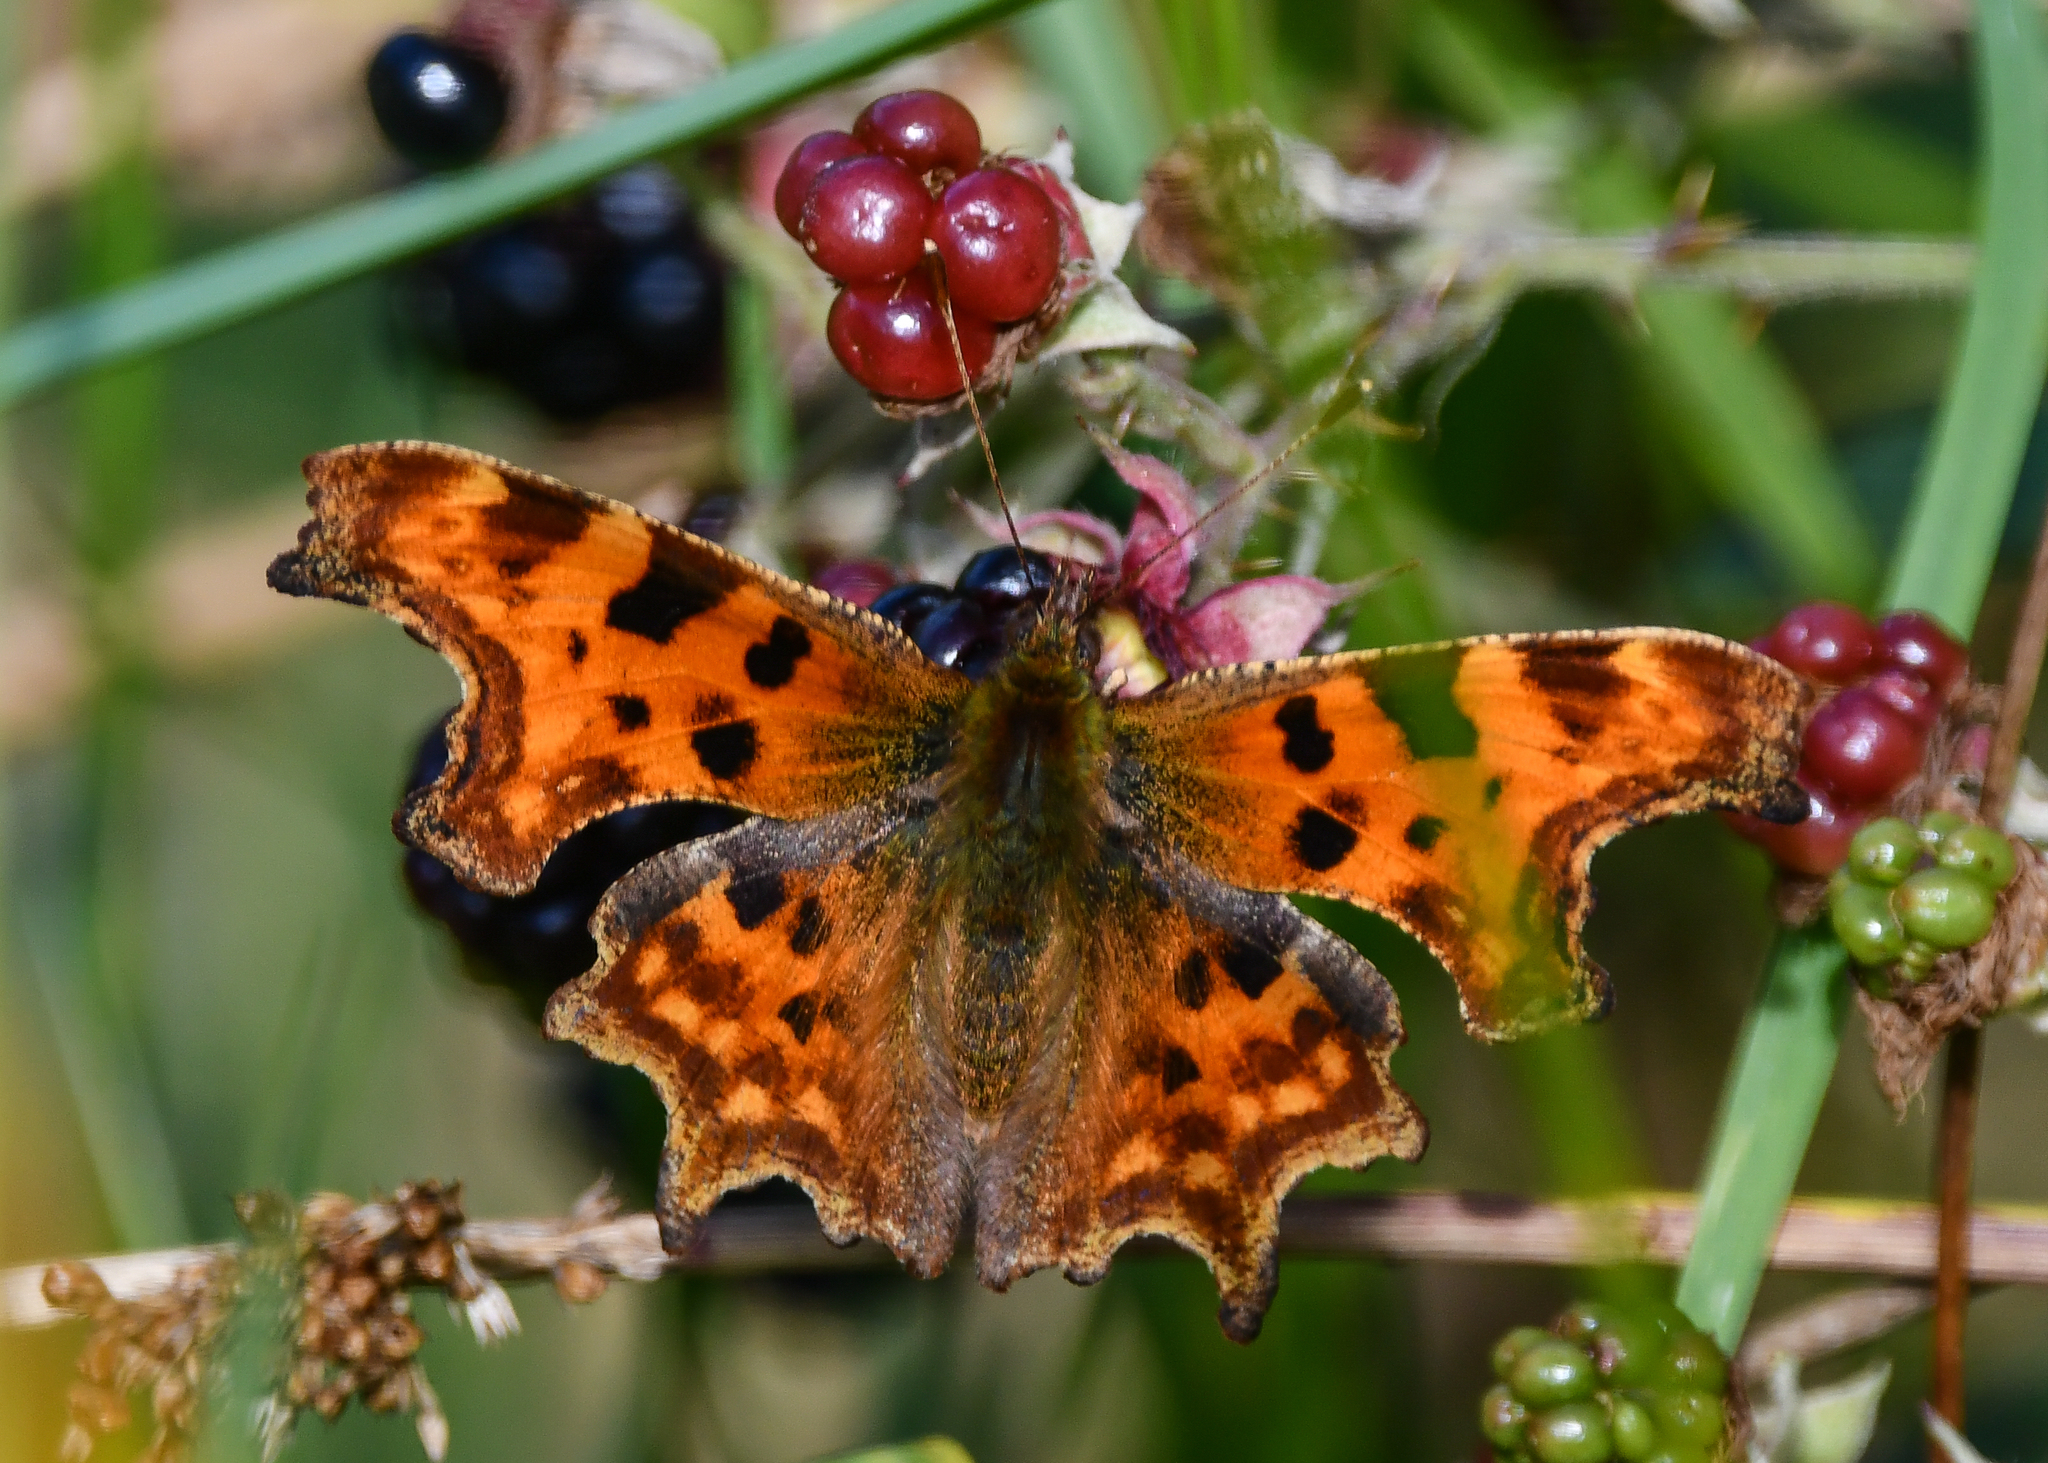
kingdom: Animalia
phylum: Arthropoda
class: Insecta
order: Lepidoptera
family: Nymphalidae
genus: Polygonia
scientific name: Polygonia c-album
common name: Comma
